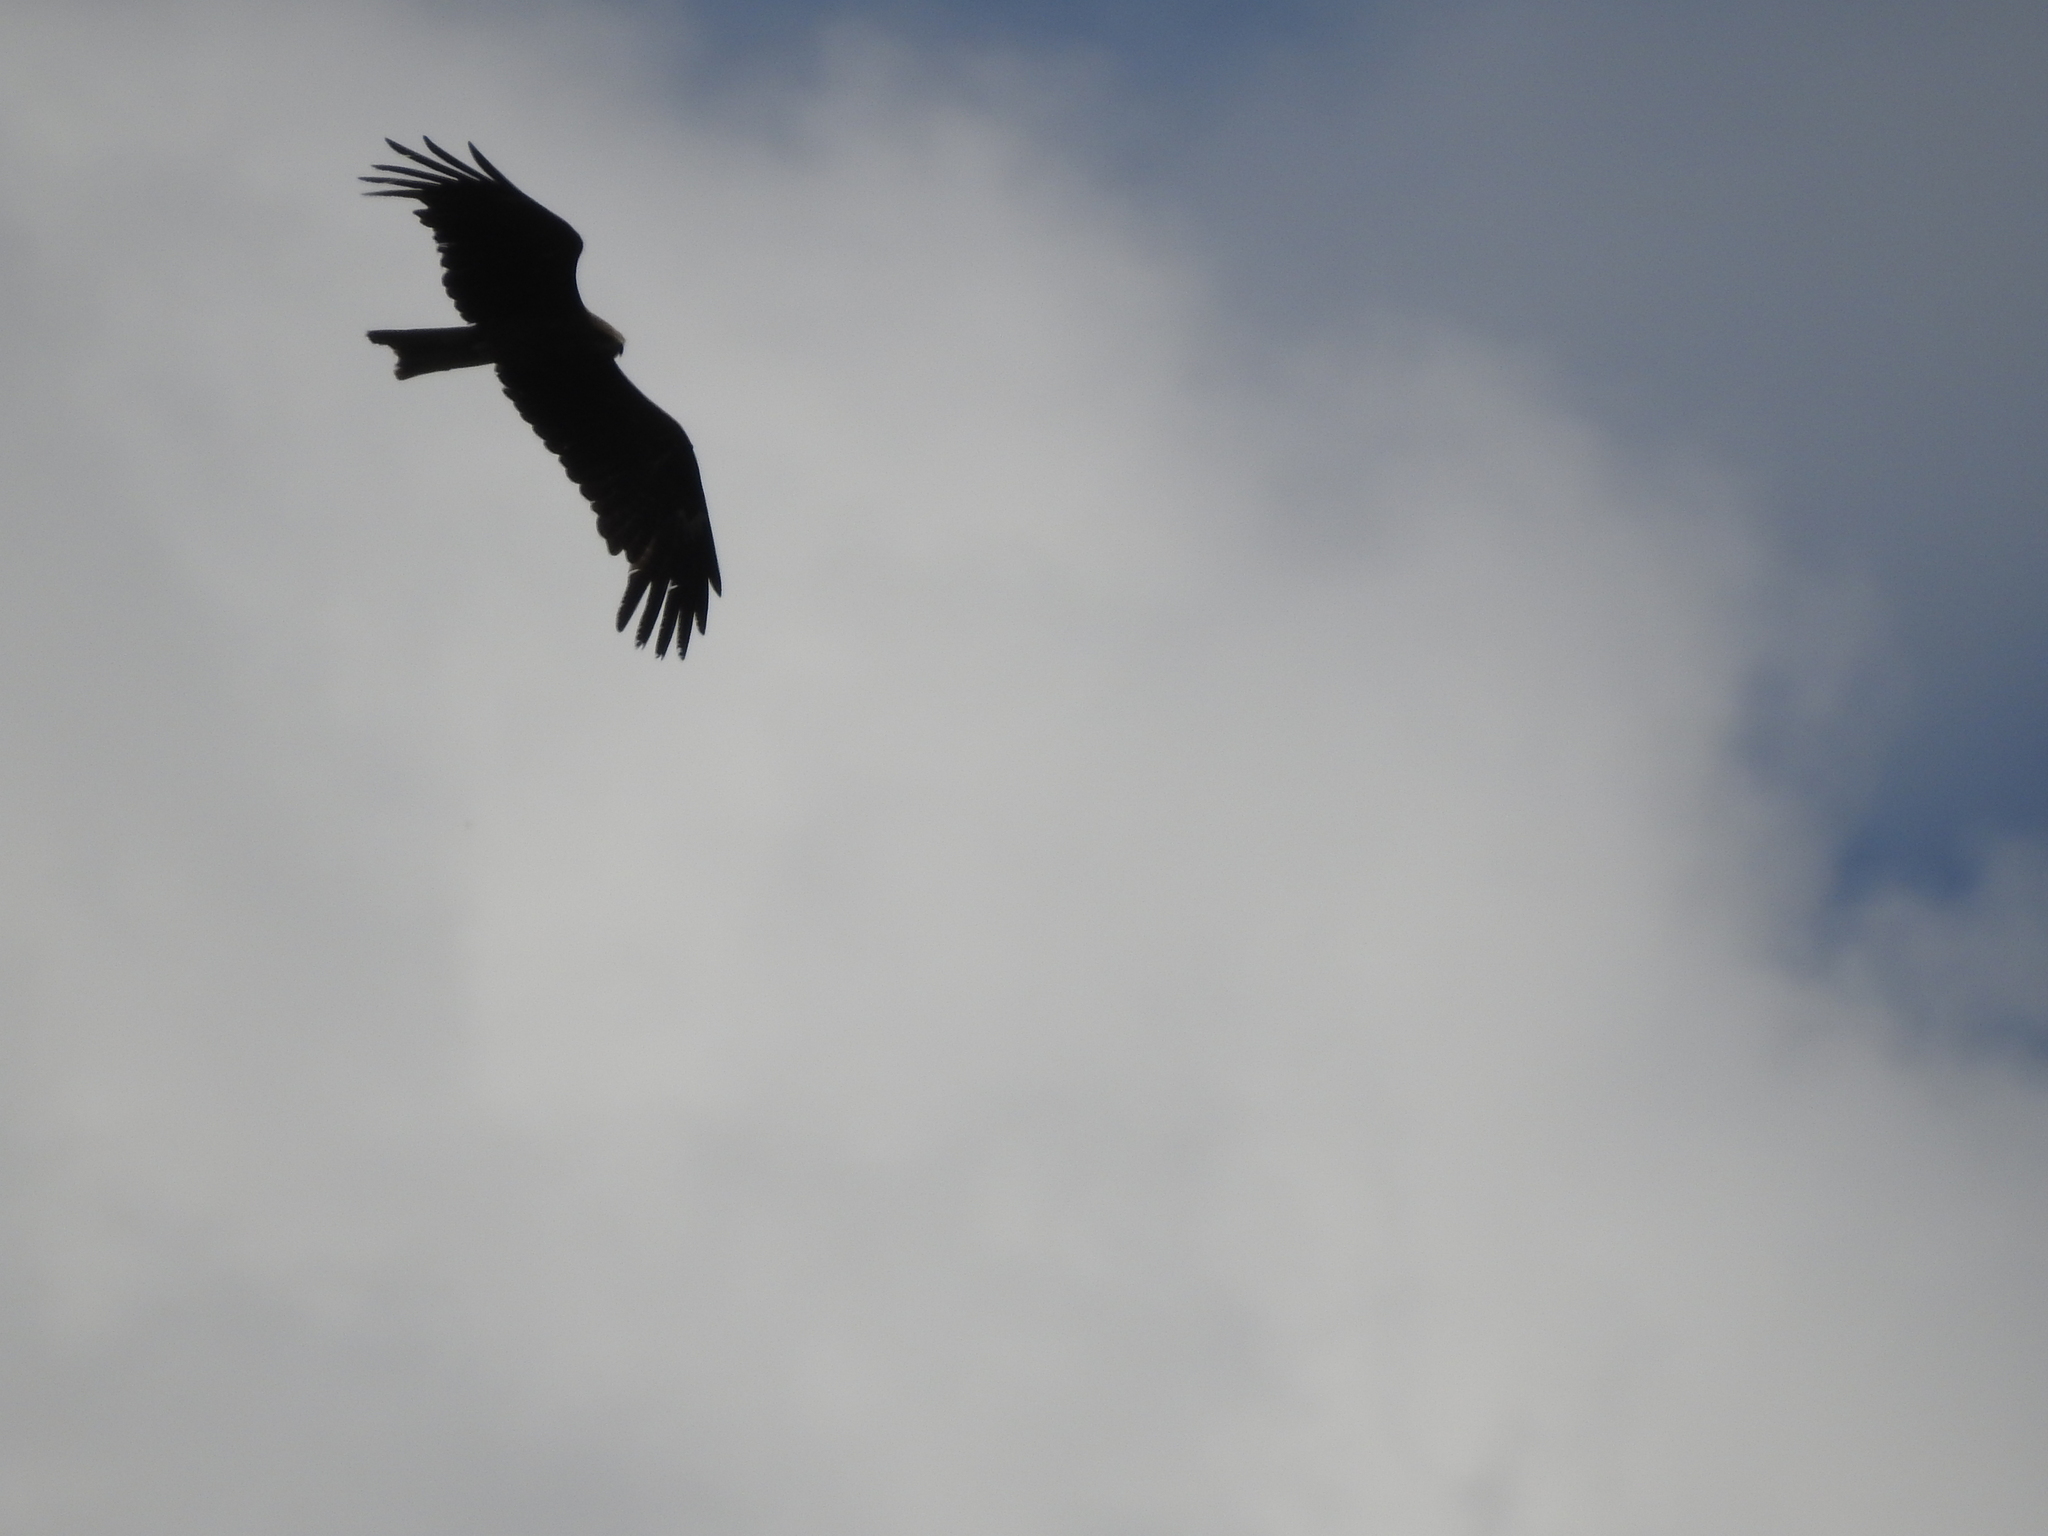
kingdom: Animalia
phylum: Chordata
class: Aves
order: Accipitriformes
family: Accipitridae
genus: Milvus
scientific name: Milvus migrans
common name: Black kite
